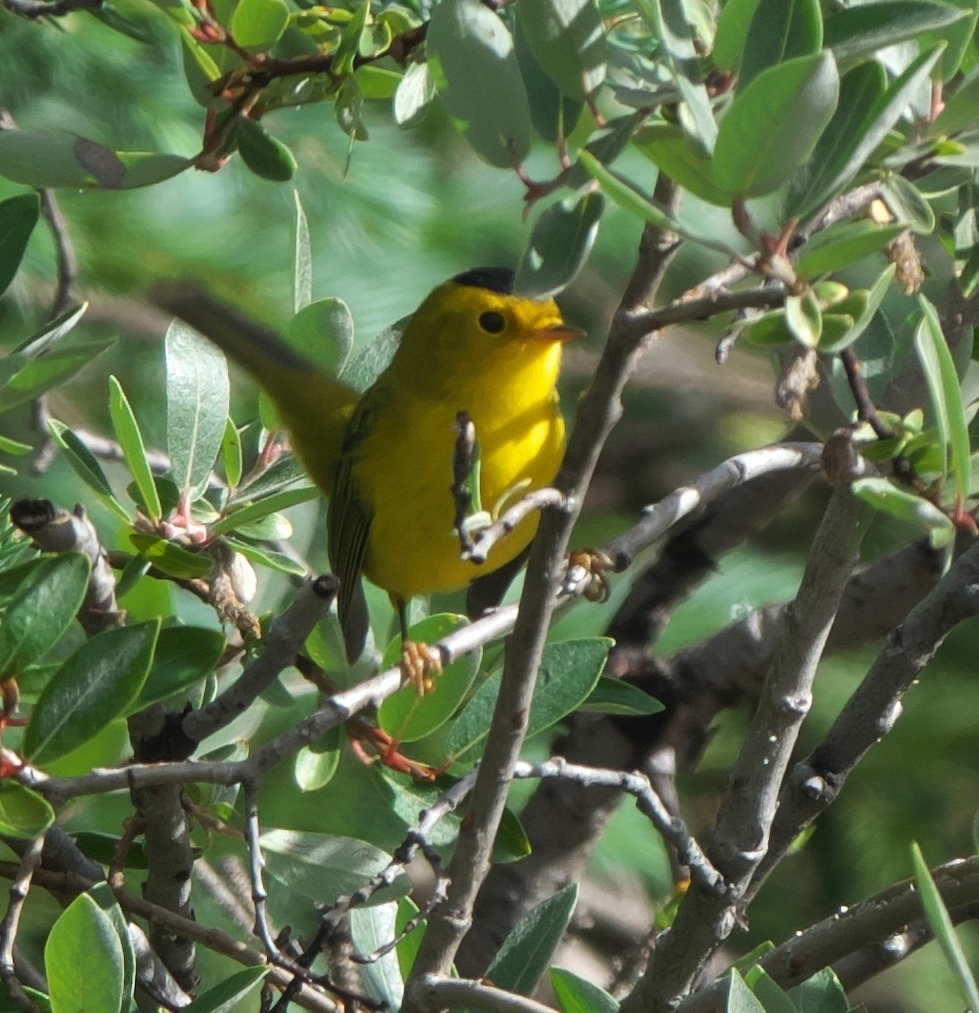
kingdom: Animalia
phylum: Chordata
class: Aves
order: Passeriformes
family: Parulidae
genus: Cardellina
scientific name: Cardellina pusilla
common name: Wilson's warbler
